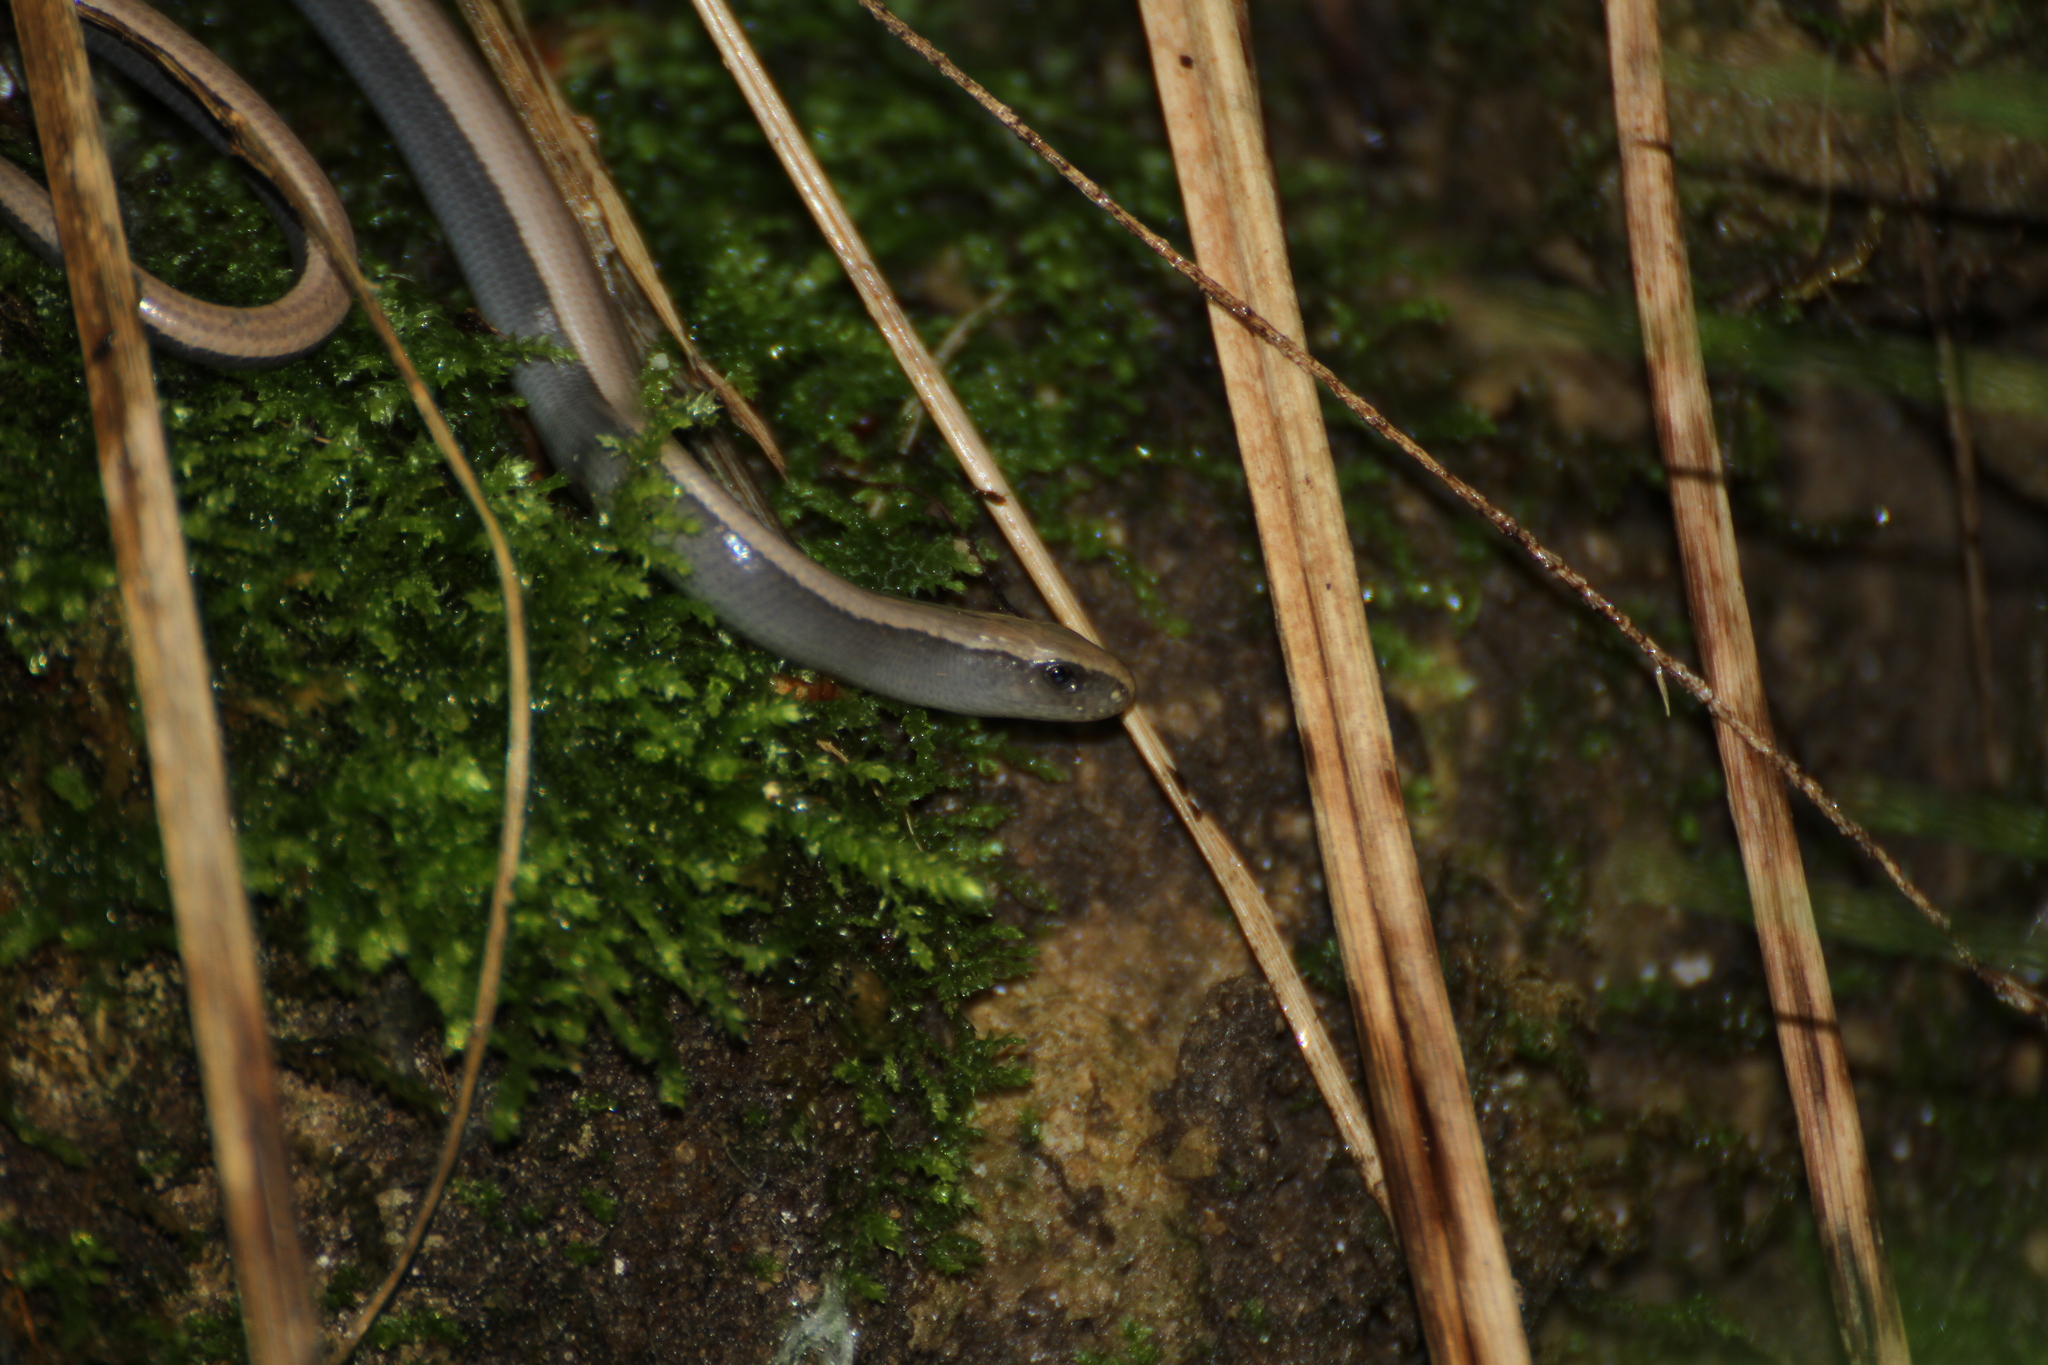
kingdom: Animalia
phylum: Chordata
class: Squamata
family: Anguidae
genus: Anguis
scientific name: Anguis veronensis
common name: Italian slow worm
